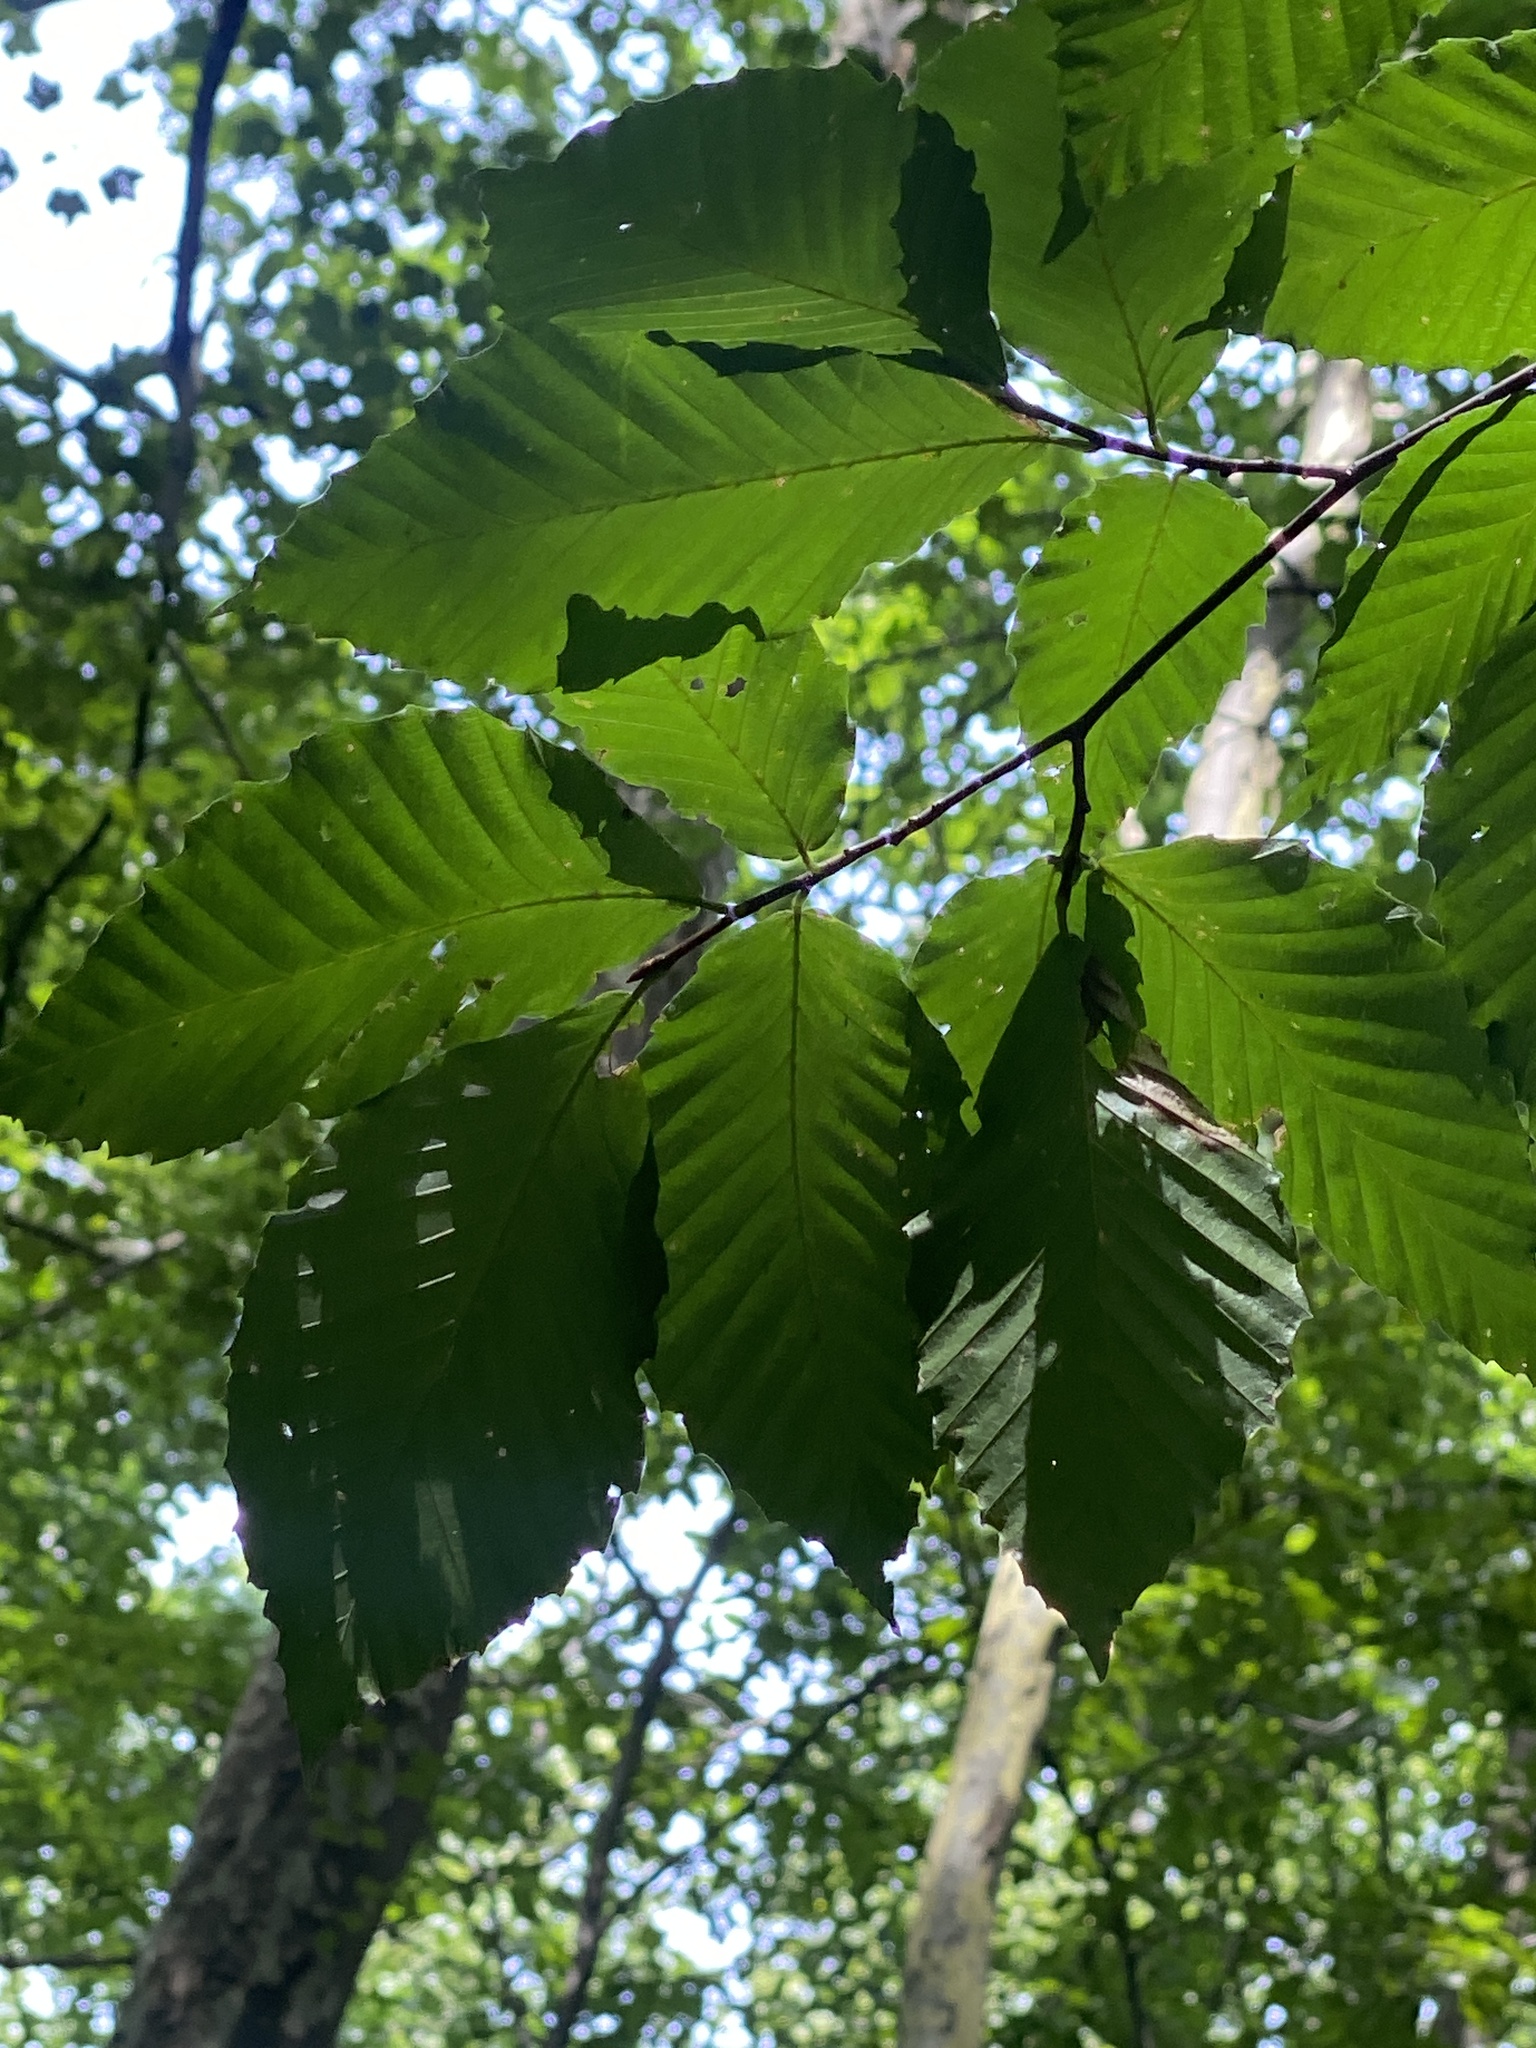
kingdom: Animalia
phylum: Nematoda
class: Chromadorea
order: Rhabditida
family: Anguinidae
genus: Litylenchus
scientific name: Litylenchus crenatae
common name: Beech leaf disease
